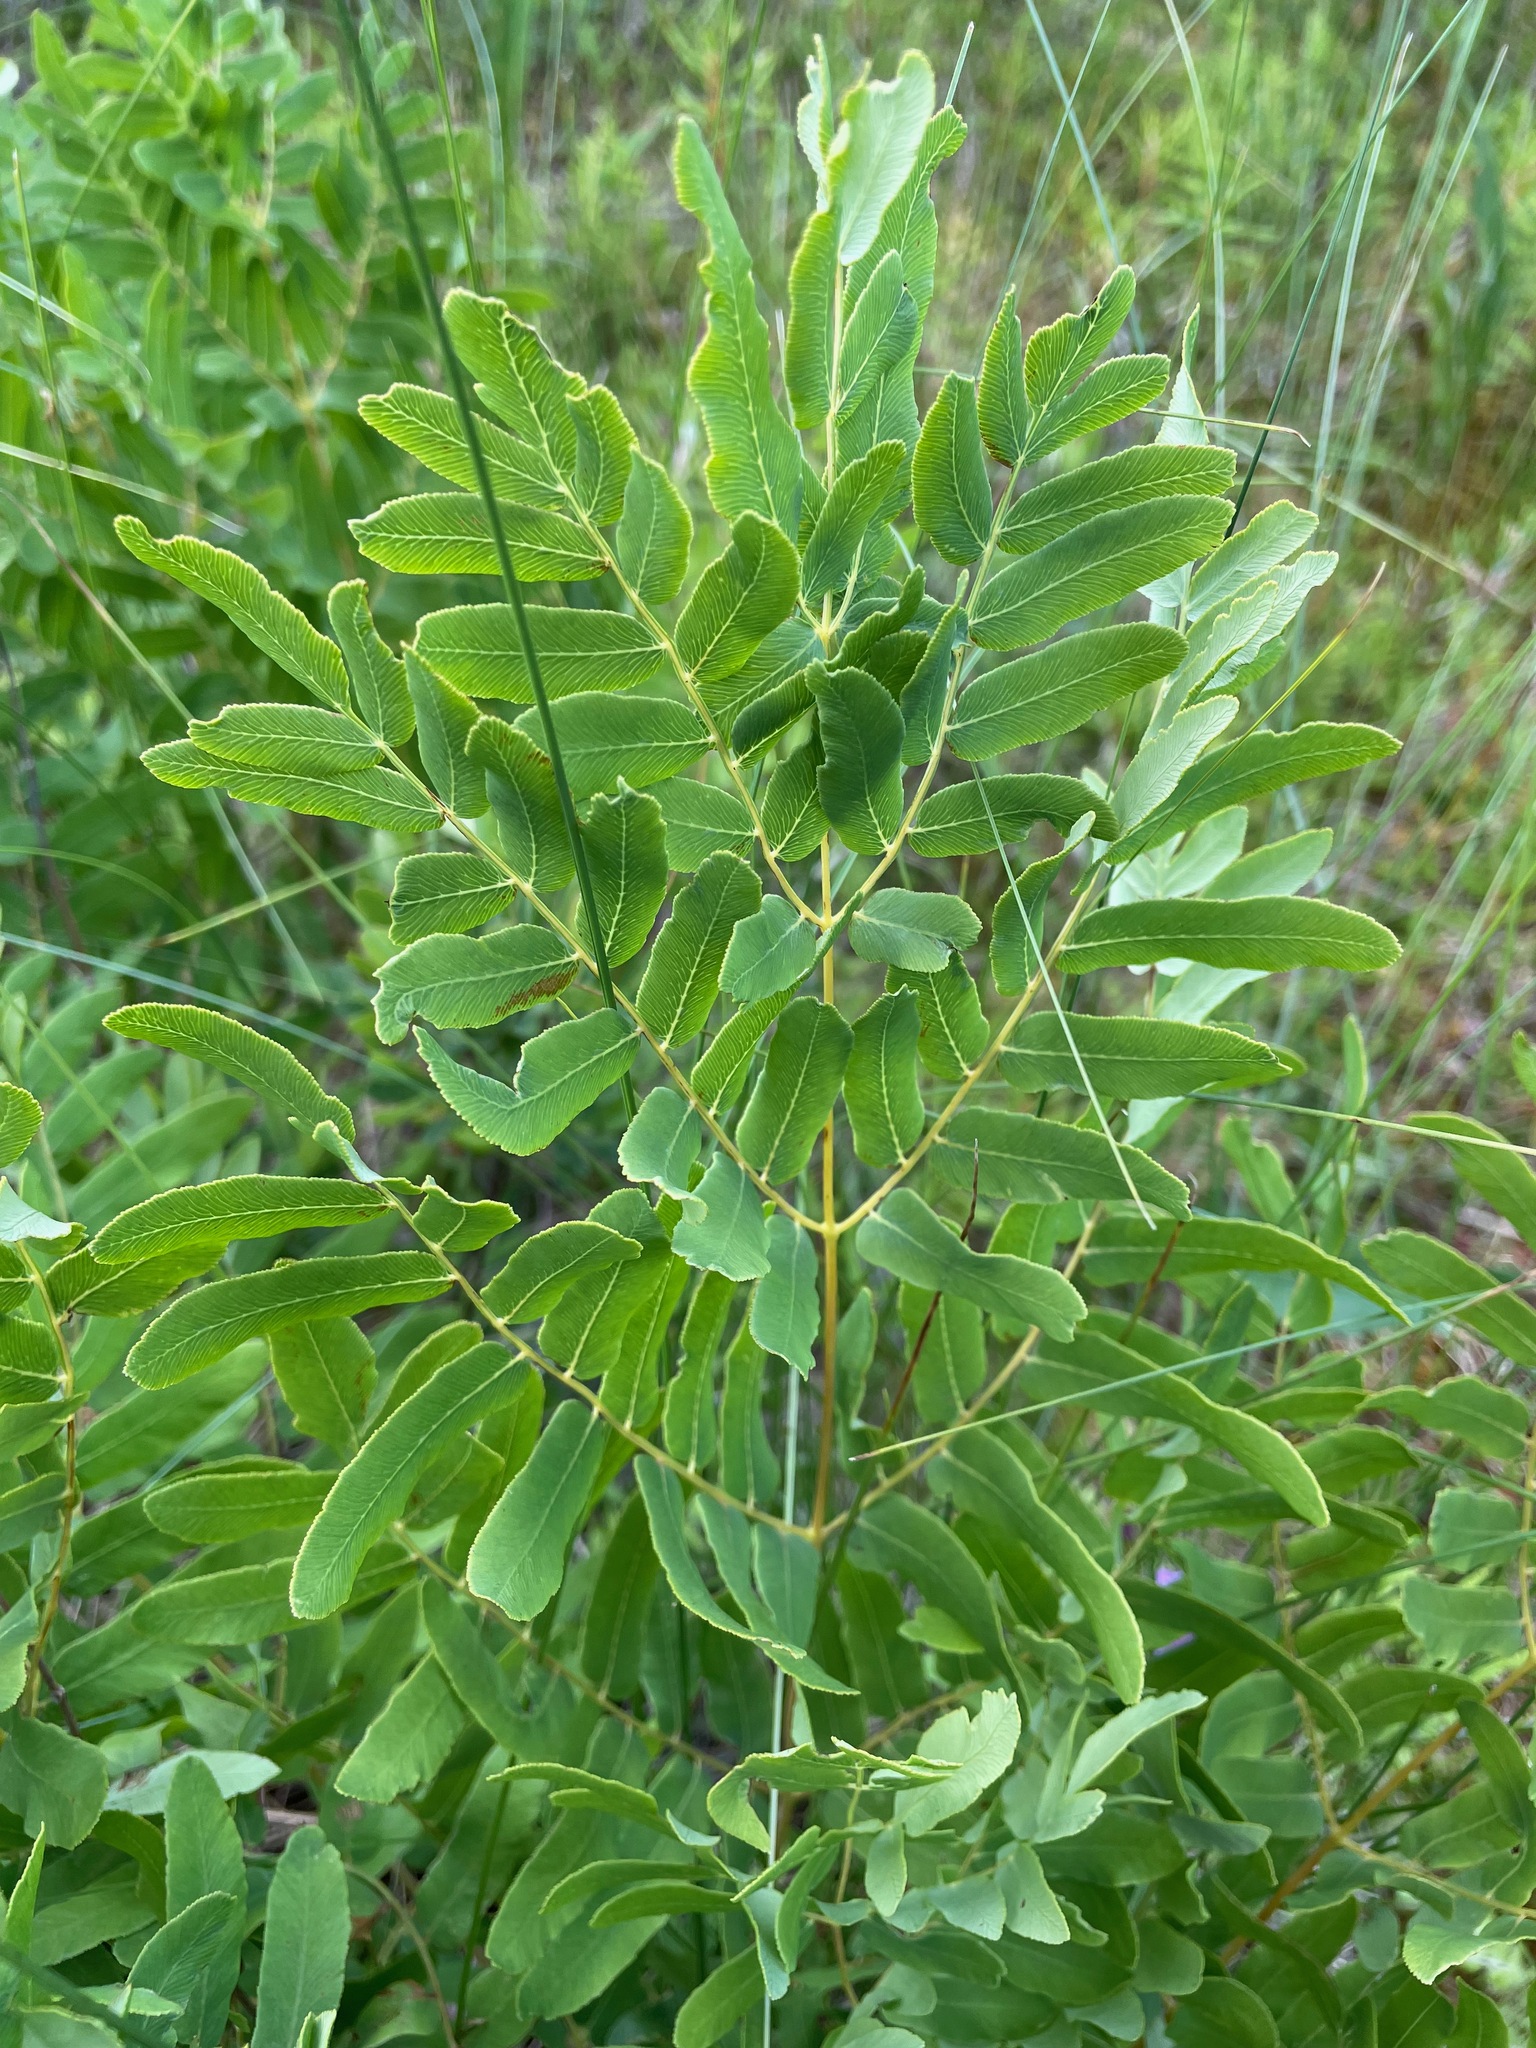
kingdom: Plantae
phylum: Tracheophyta
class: Polypodiopsida
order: Osmundales
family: Osmundaceae
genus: Osmunda
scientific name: Osmunda spectabilis
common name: American royal fern
